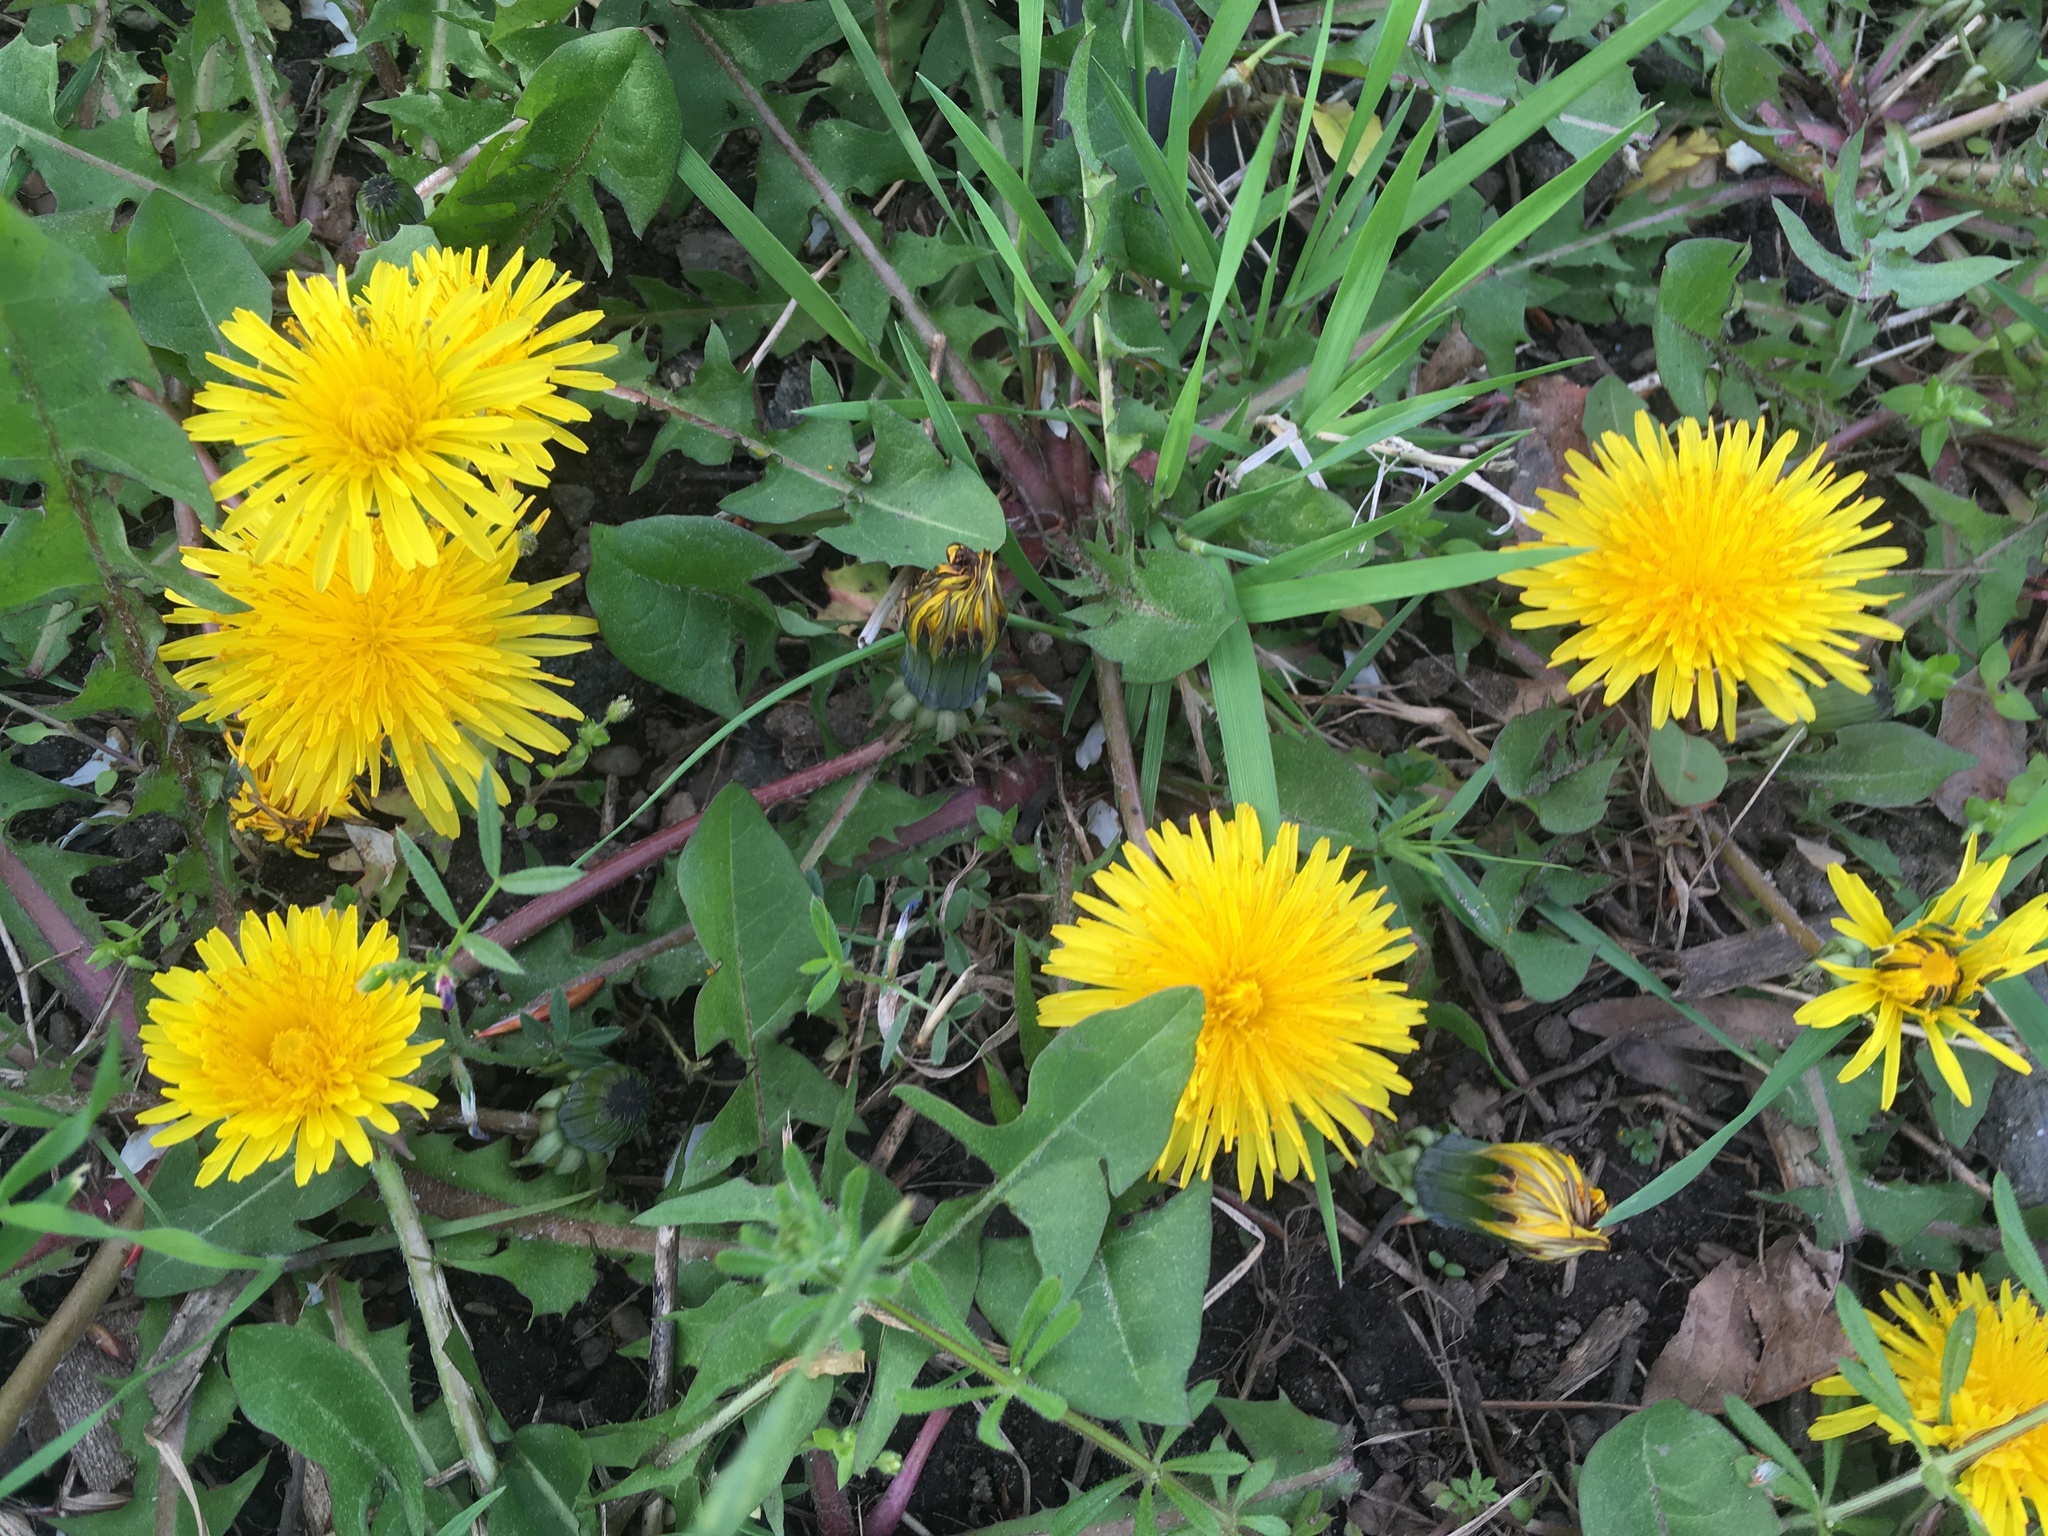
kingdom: Plantae
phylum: Tracheophyta
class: Magnoliopsida
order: Asterales
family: Asteraceae
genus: Taraxacum
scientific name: Taraxacum officinale
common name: Common dandelion
